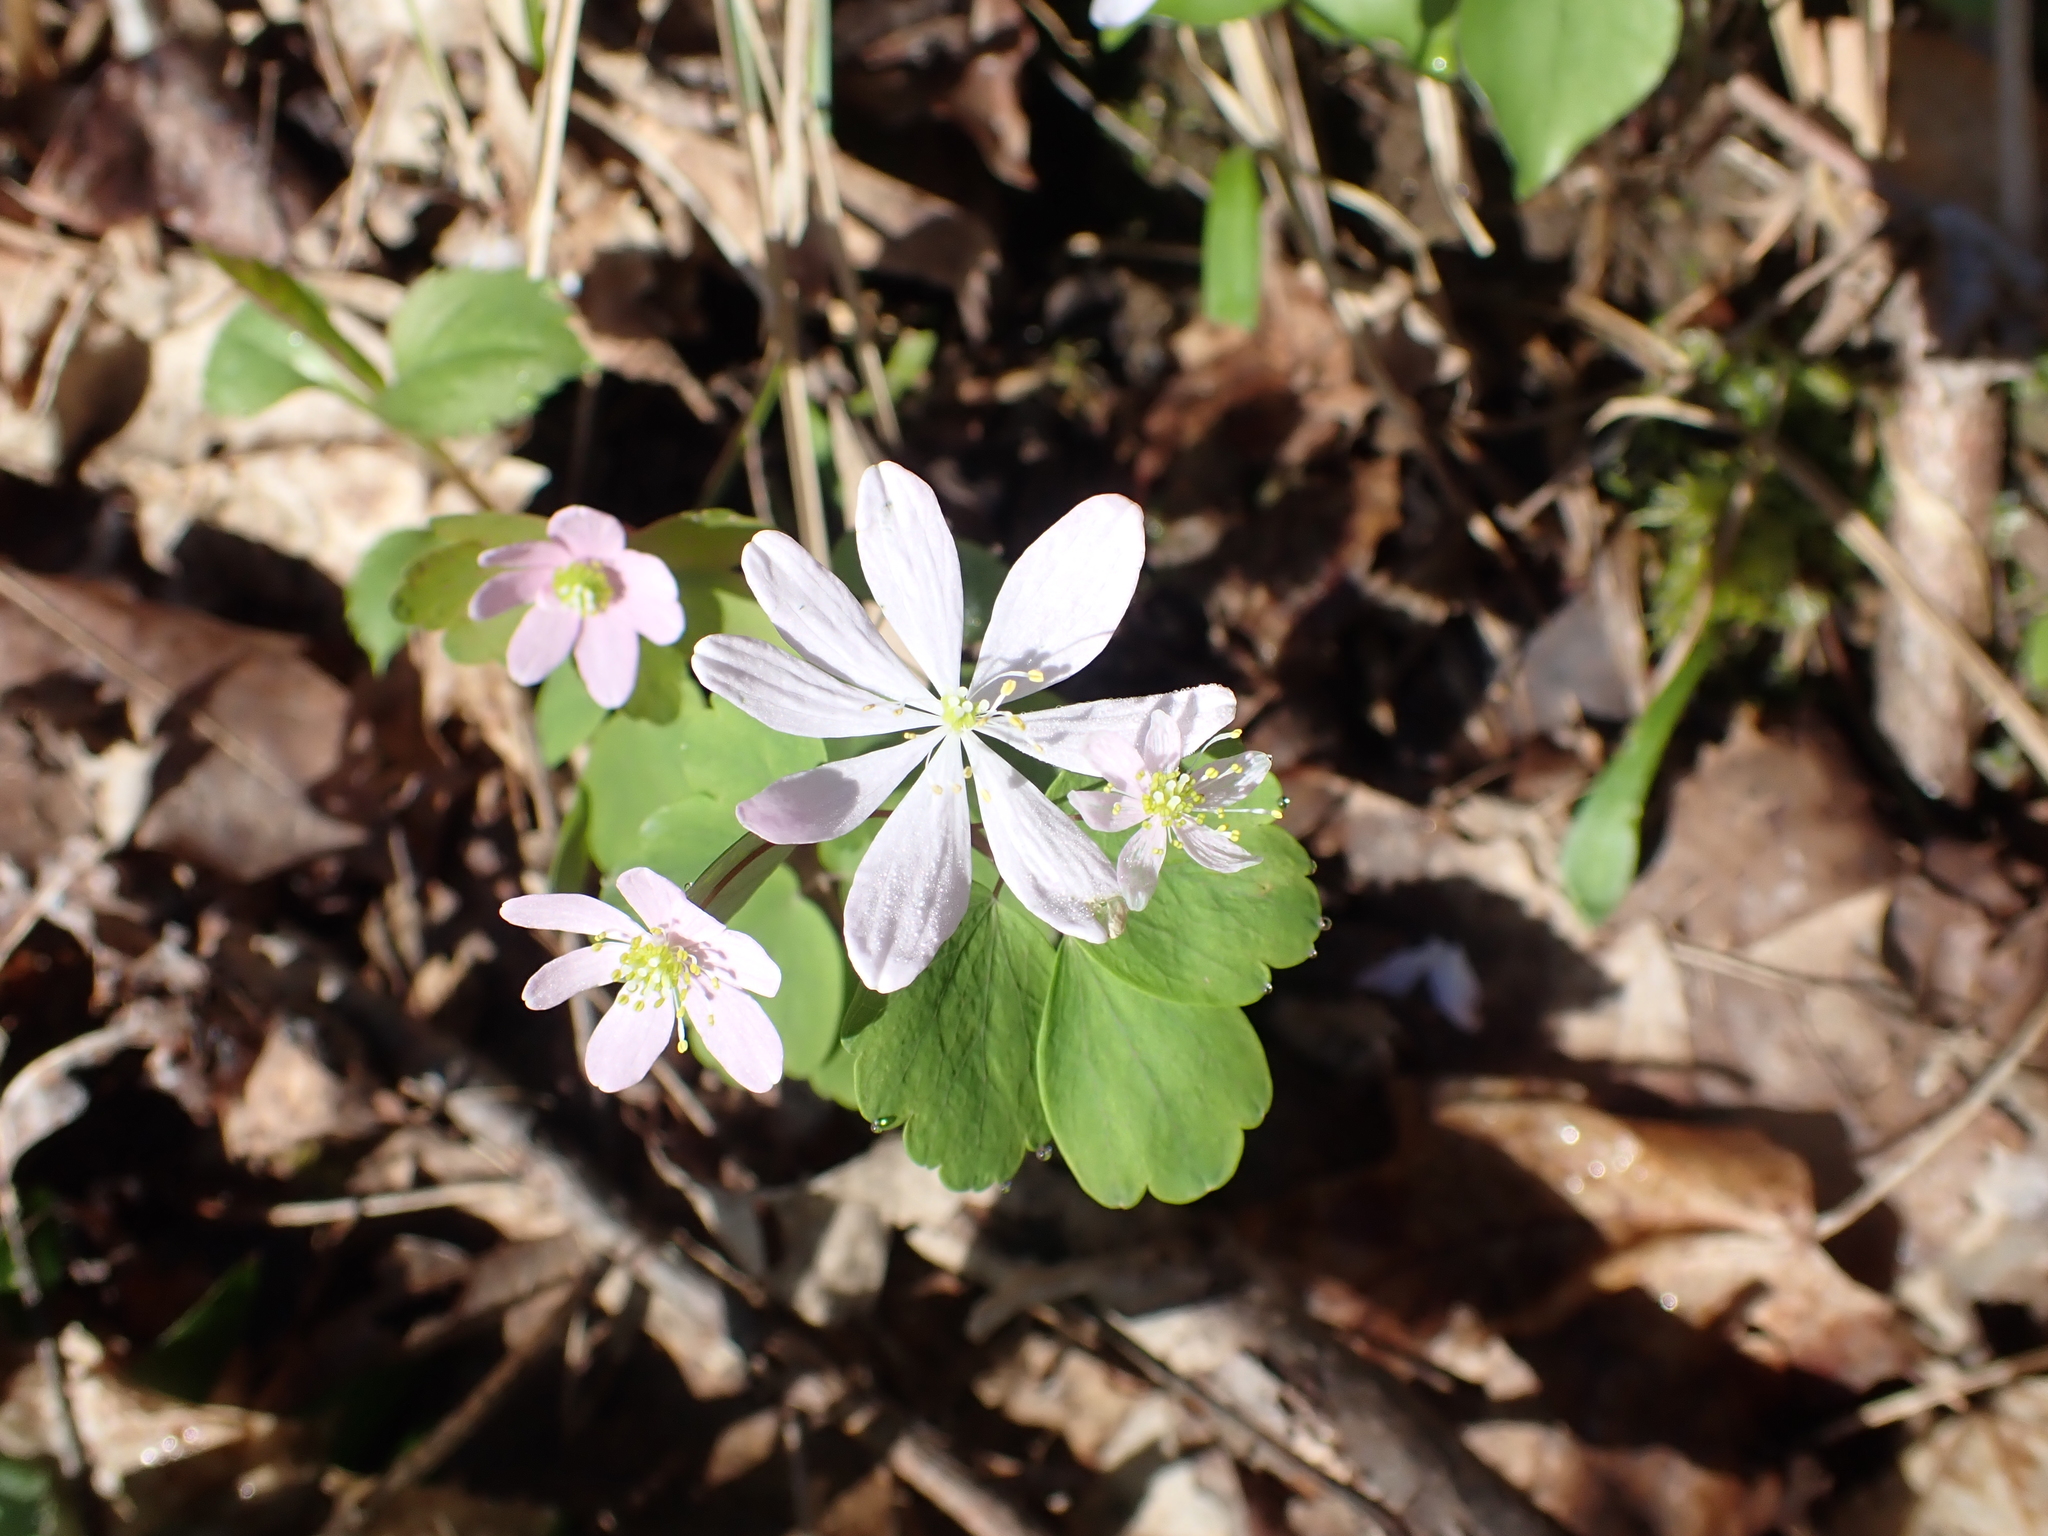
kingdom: Plantae
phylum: Tracheophyta
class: Magnoliopsida
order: Ranunculales
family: Ranunculaceae
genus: Thalictrum
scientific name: Thalictrum thalictroides
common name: Rue-anemone
